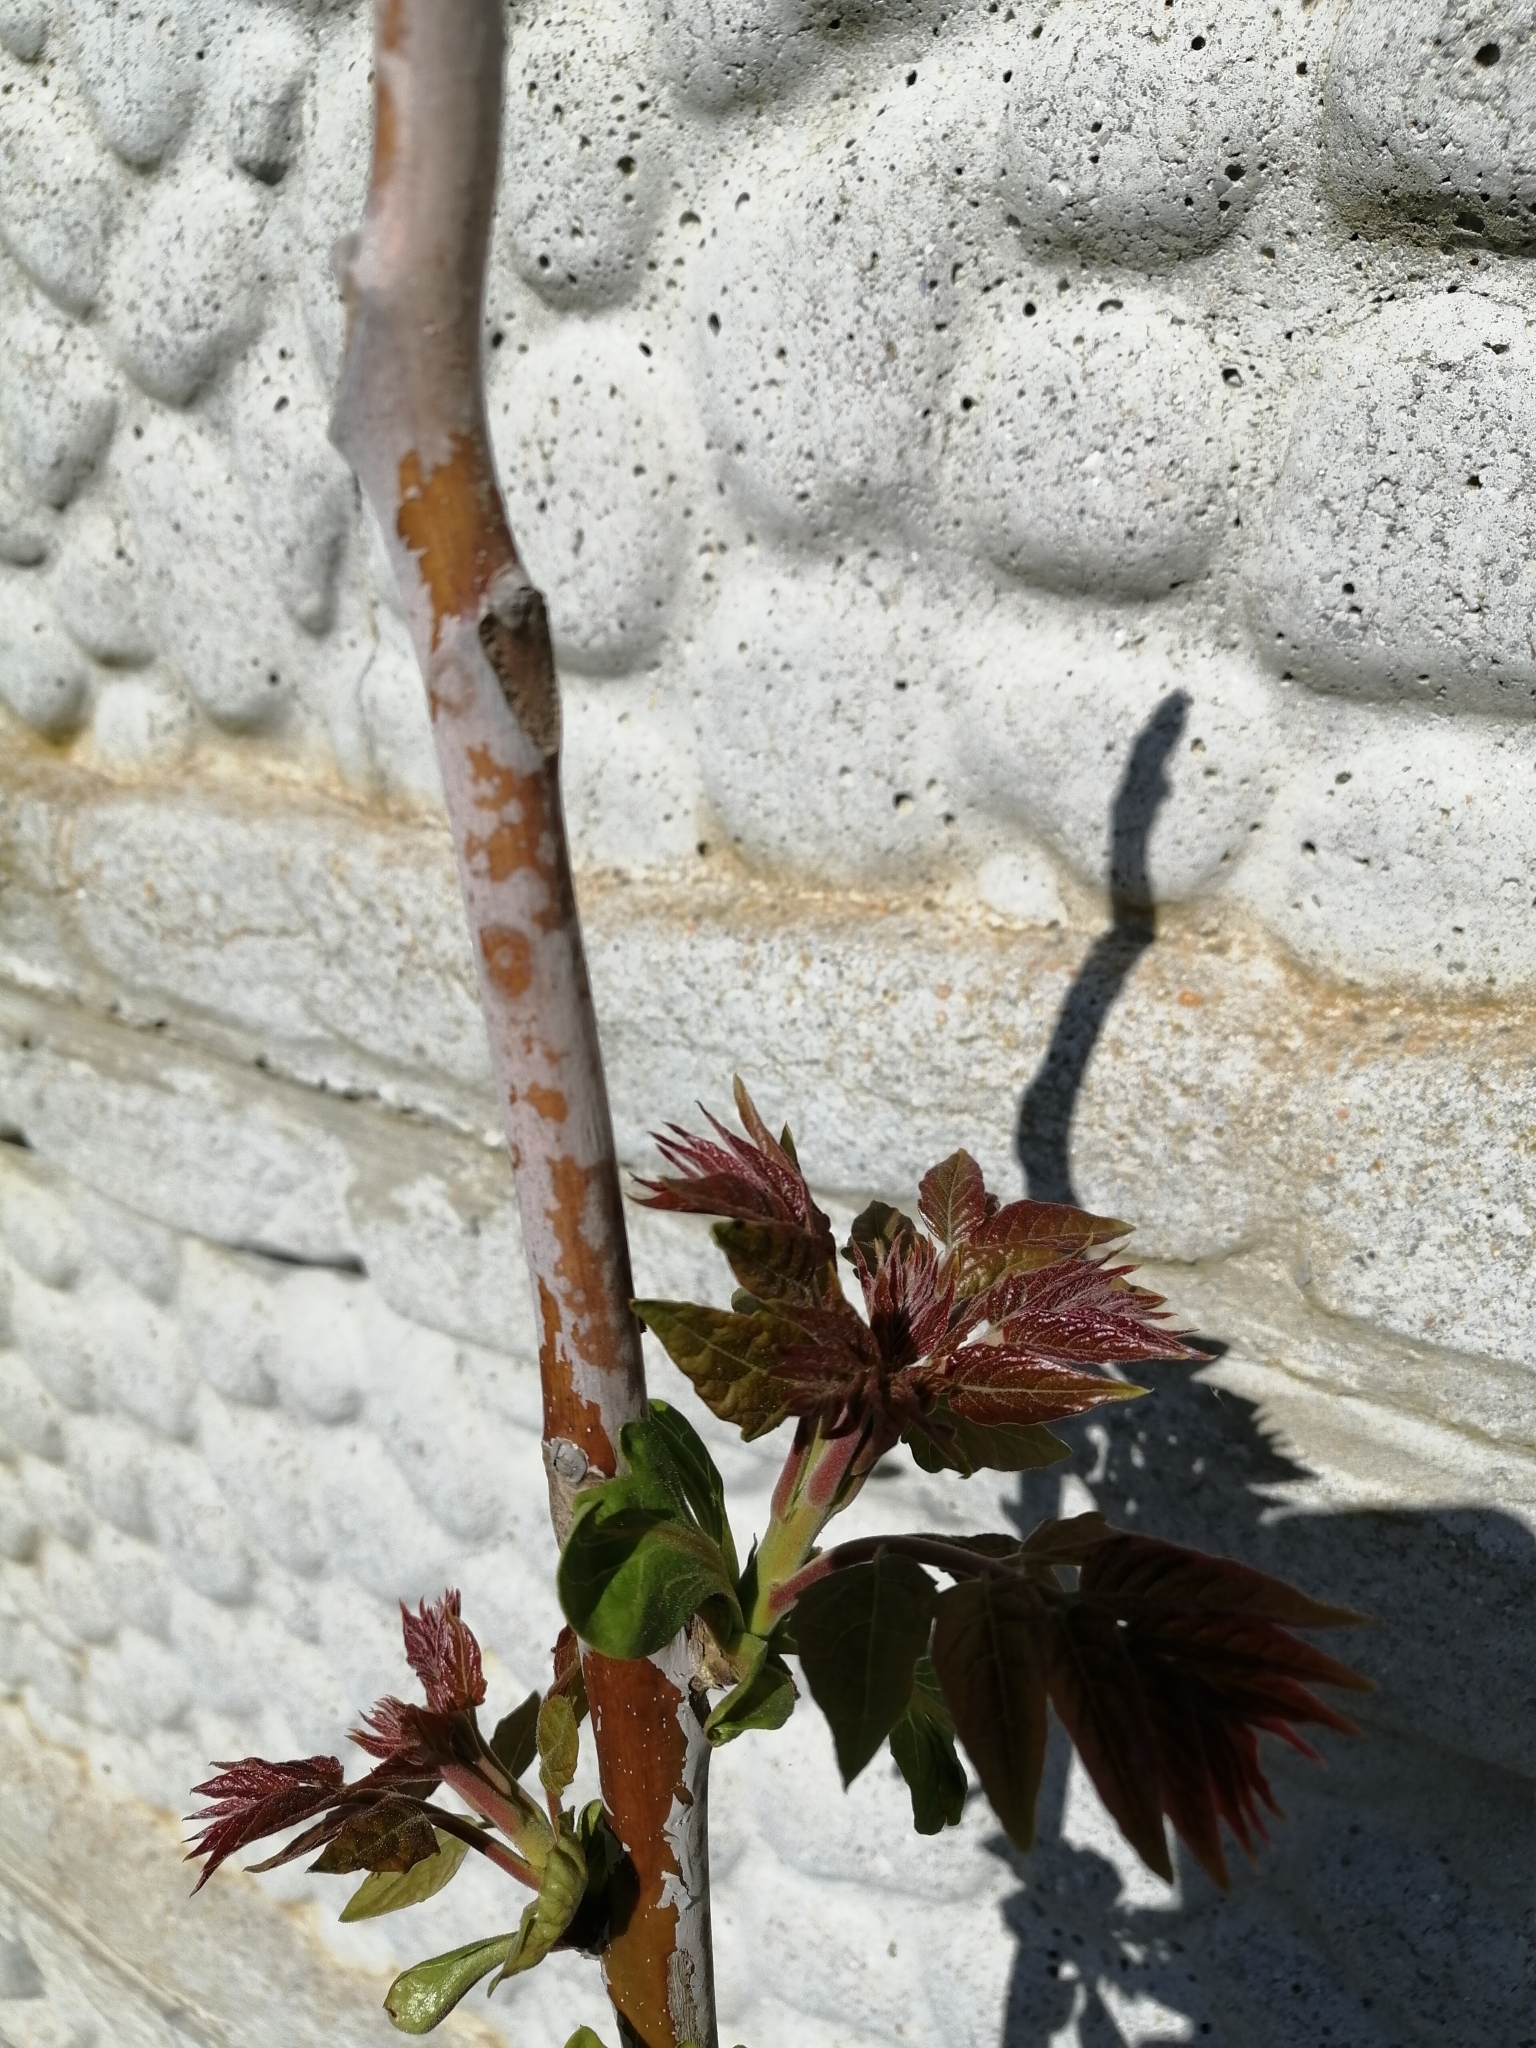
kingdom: Plantae
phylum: Tracheophyta
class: Magnoliopsida
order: Sapindales
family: Simaroubaceae
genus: Ailanthus
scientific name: Ailanthus altissima
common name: Tree-of-heaven
